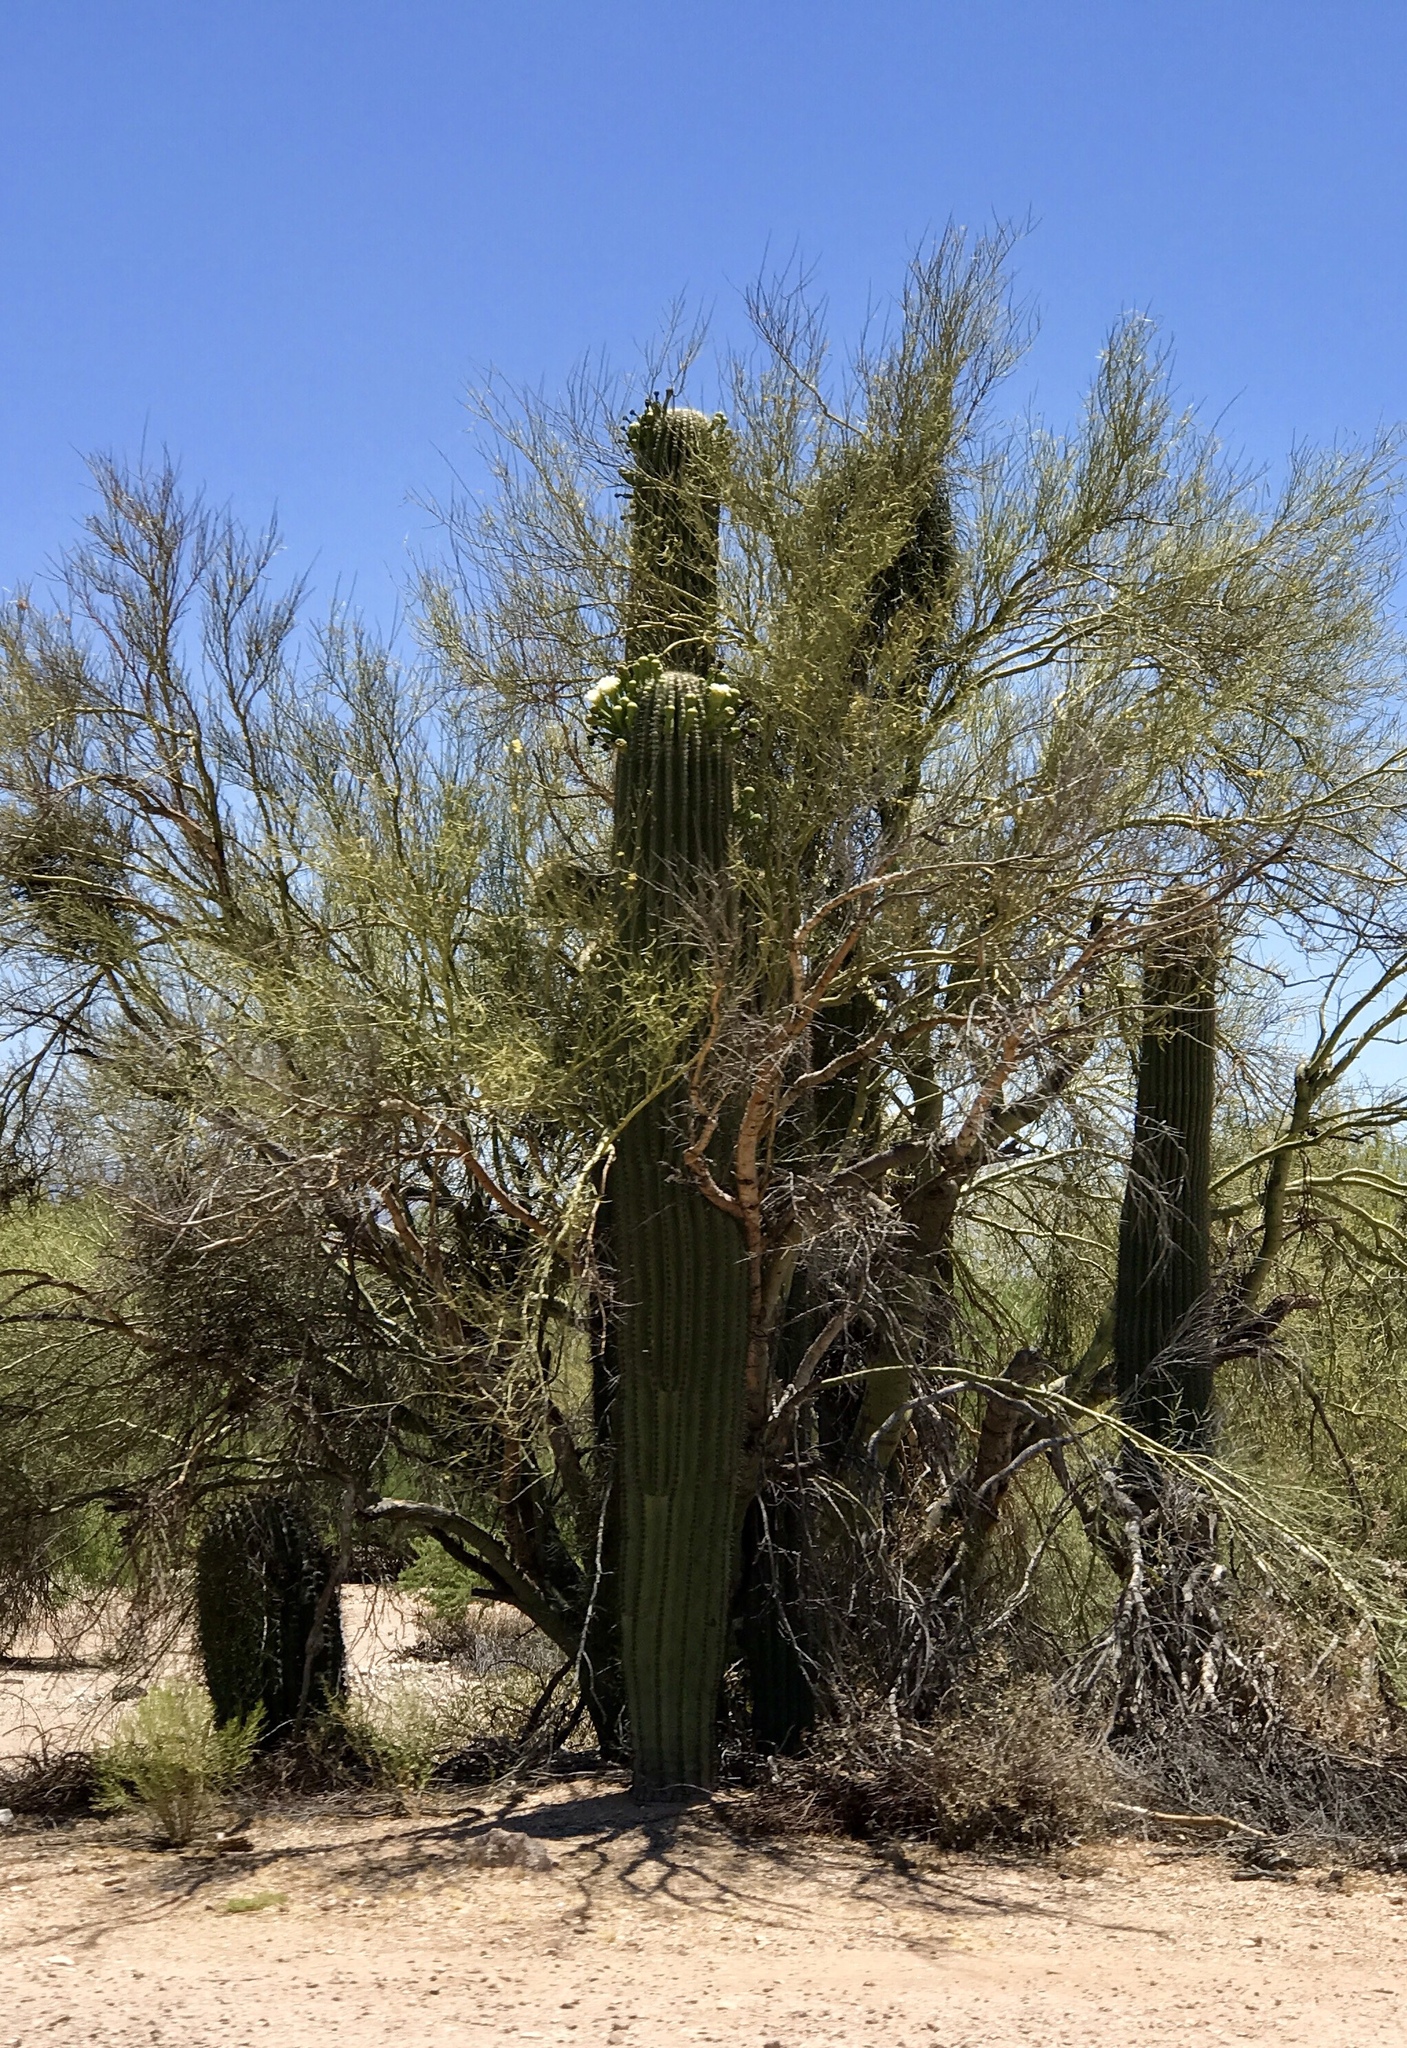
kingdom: Plantae
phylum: Tracheophyta
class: Magnoliopsida
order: Caryophyllales
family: Cactaceae
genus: Carnegiea
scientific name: Carnegiea gigantea
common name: Saguaro
